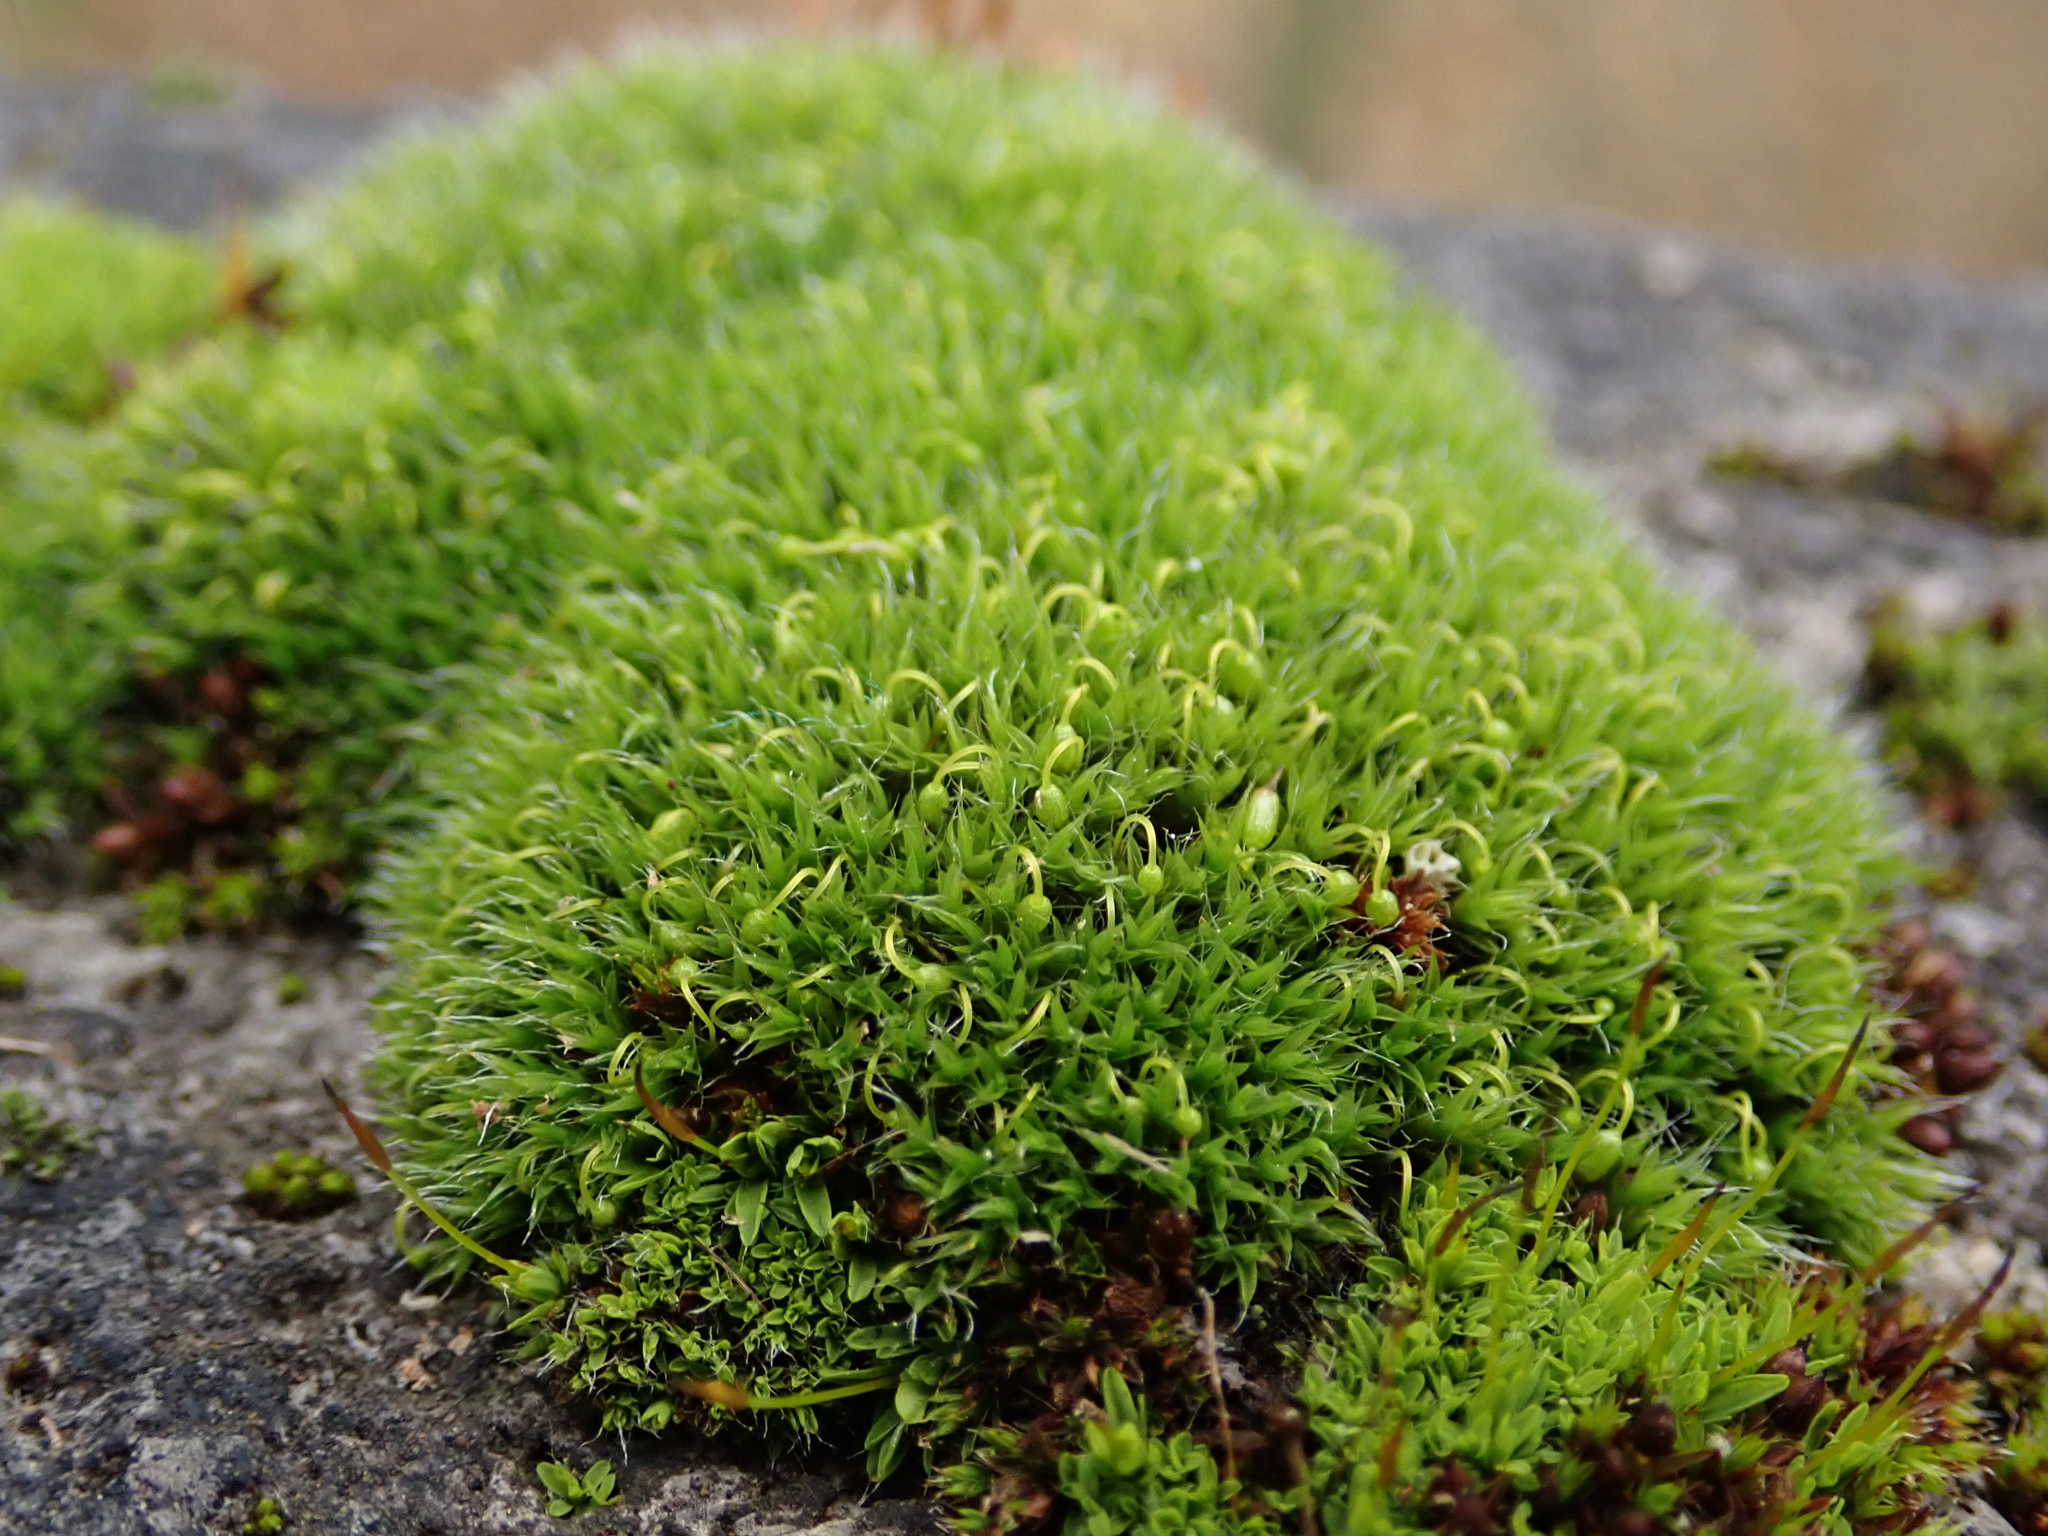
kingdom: Plantae
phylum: Bryophyta
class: Bryopsida
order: Grimmiales
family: Grimmiaceae
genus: Grimmia
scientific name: Grimmia pulvinata
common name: Grey-cushioned grimmia
